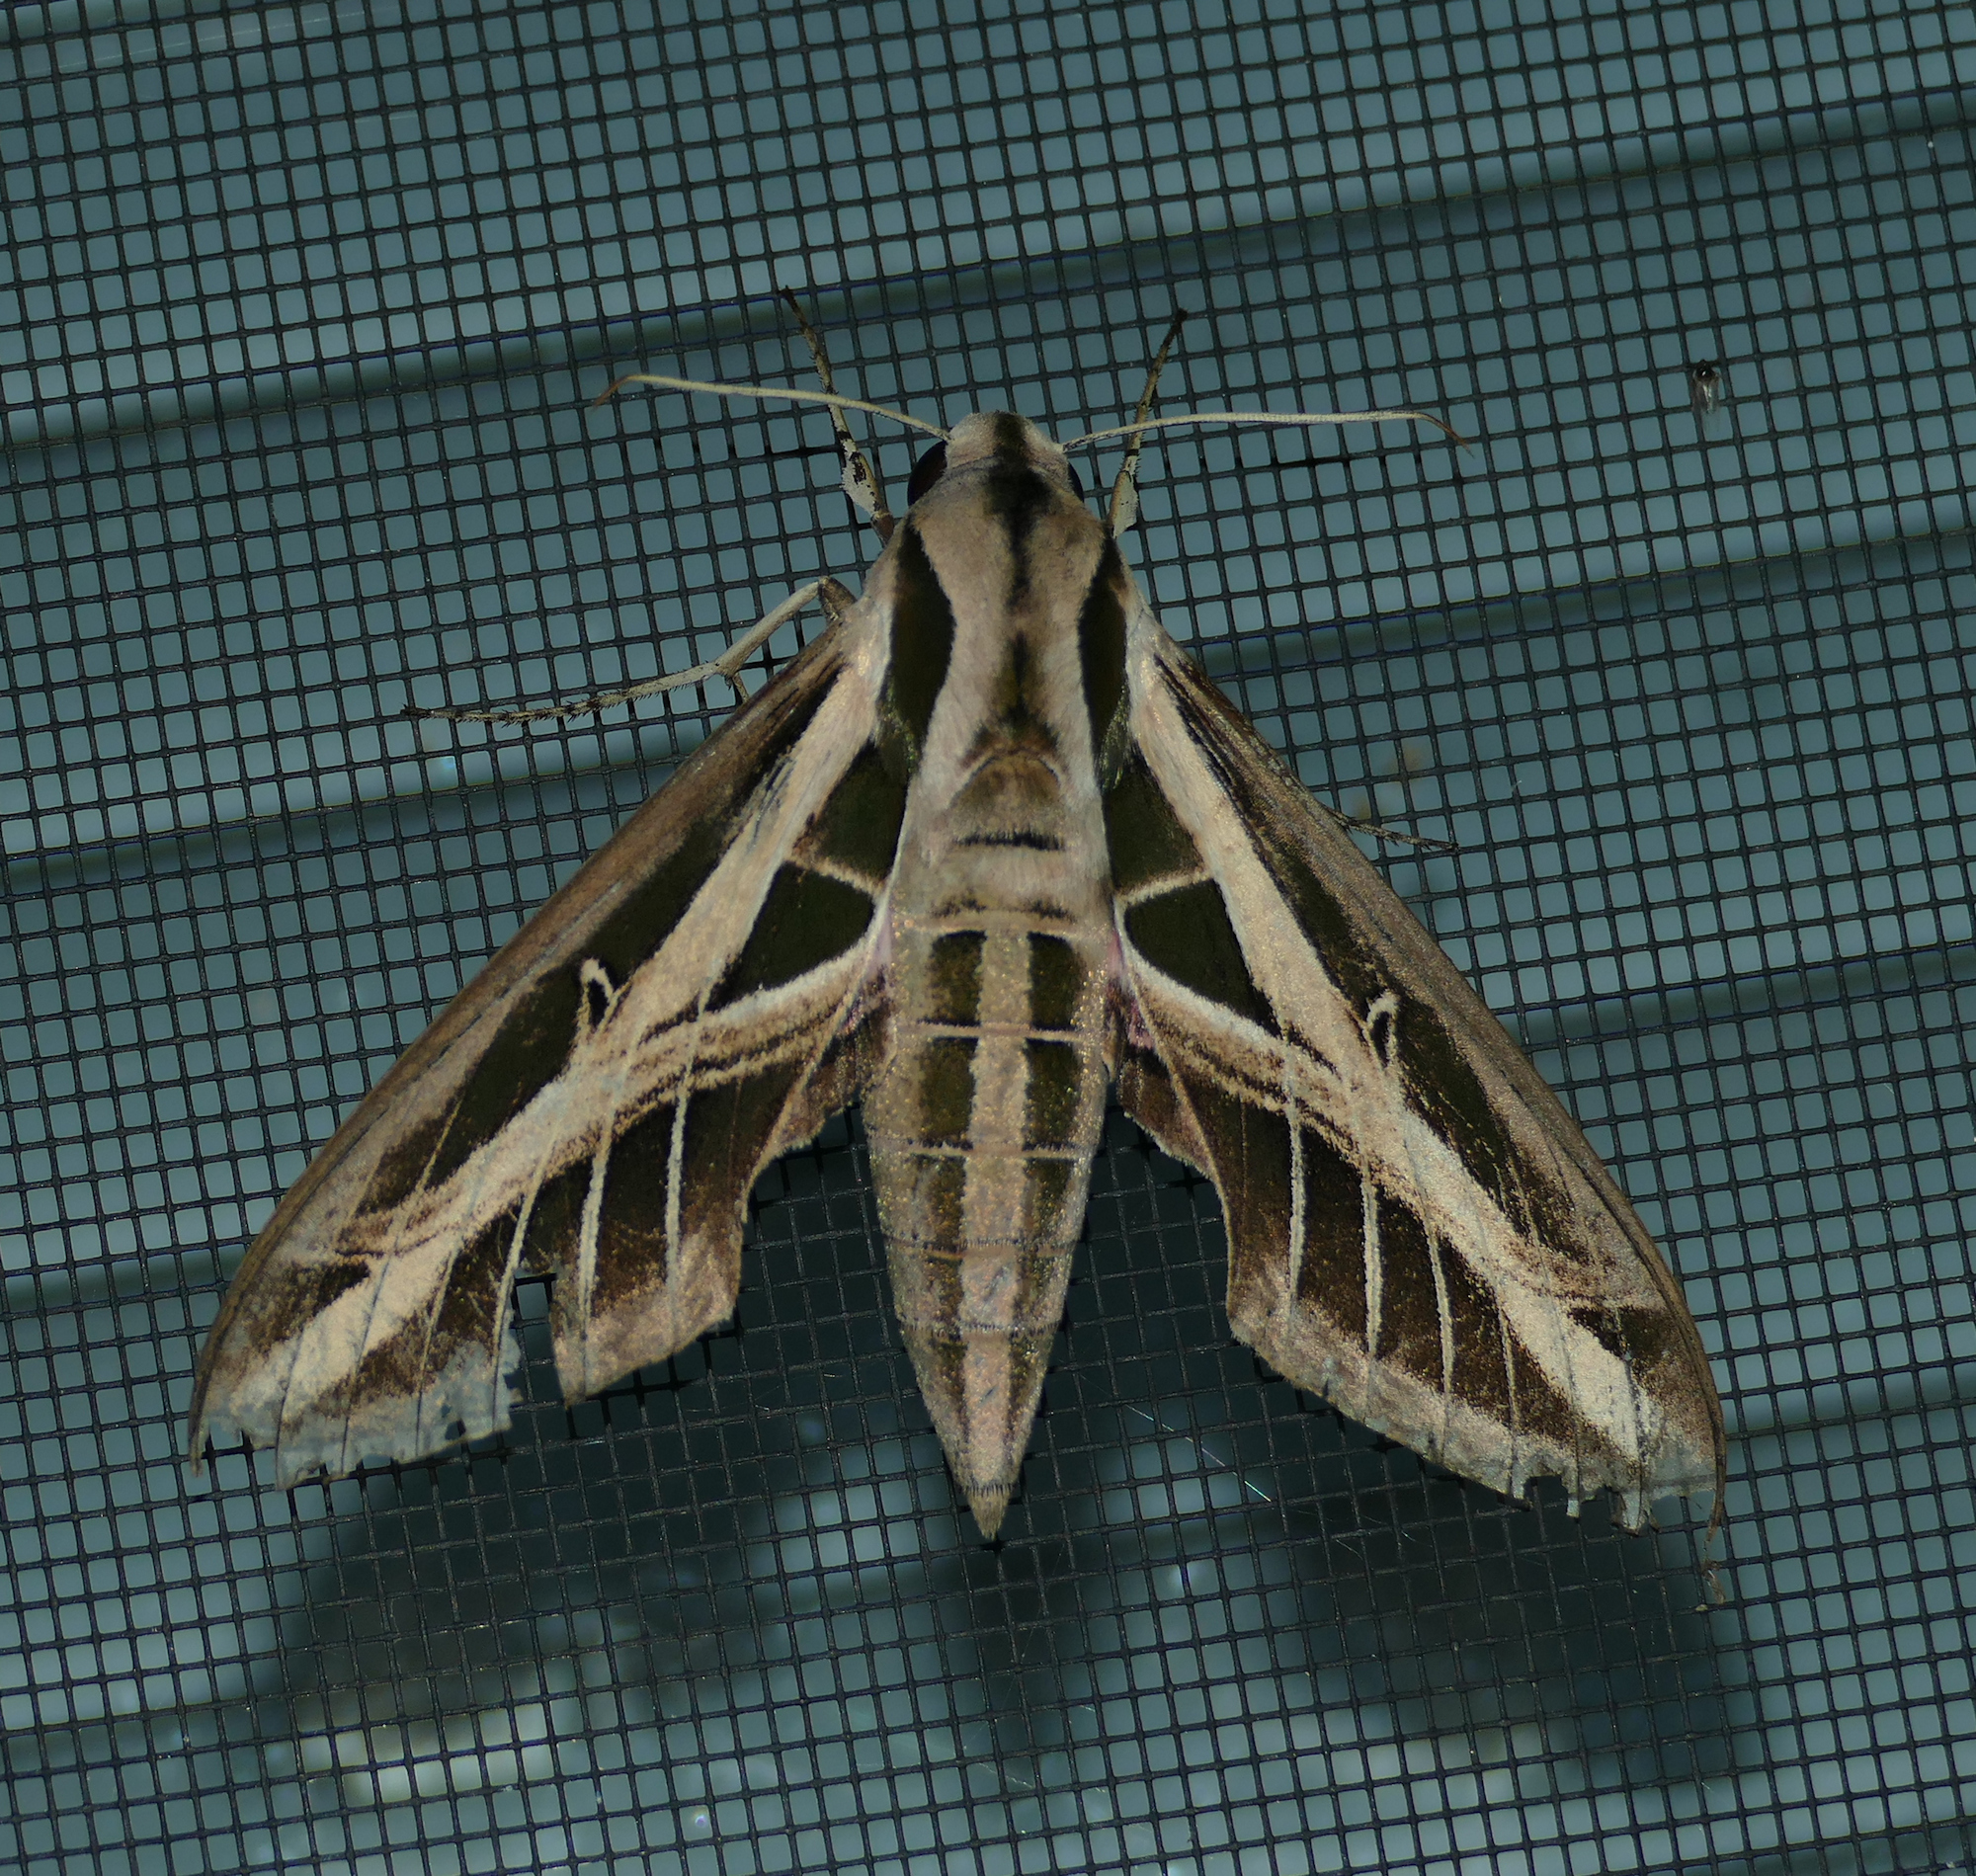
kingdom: Animalia
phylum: Arthropoda
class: Insecta
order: Lepidoptera
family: Sphingidae
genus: Eumorpha
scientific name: Eumorpha fasciatus
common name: Banded sphinx
